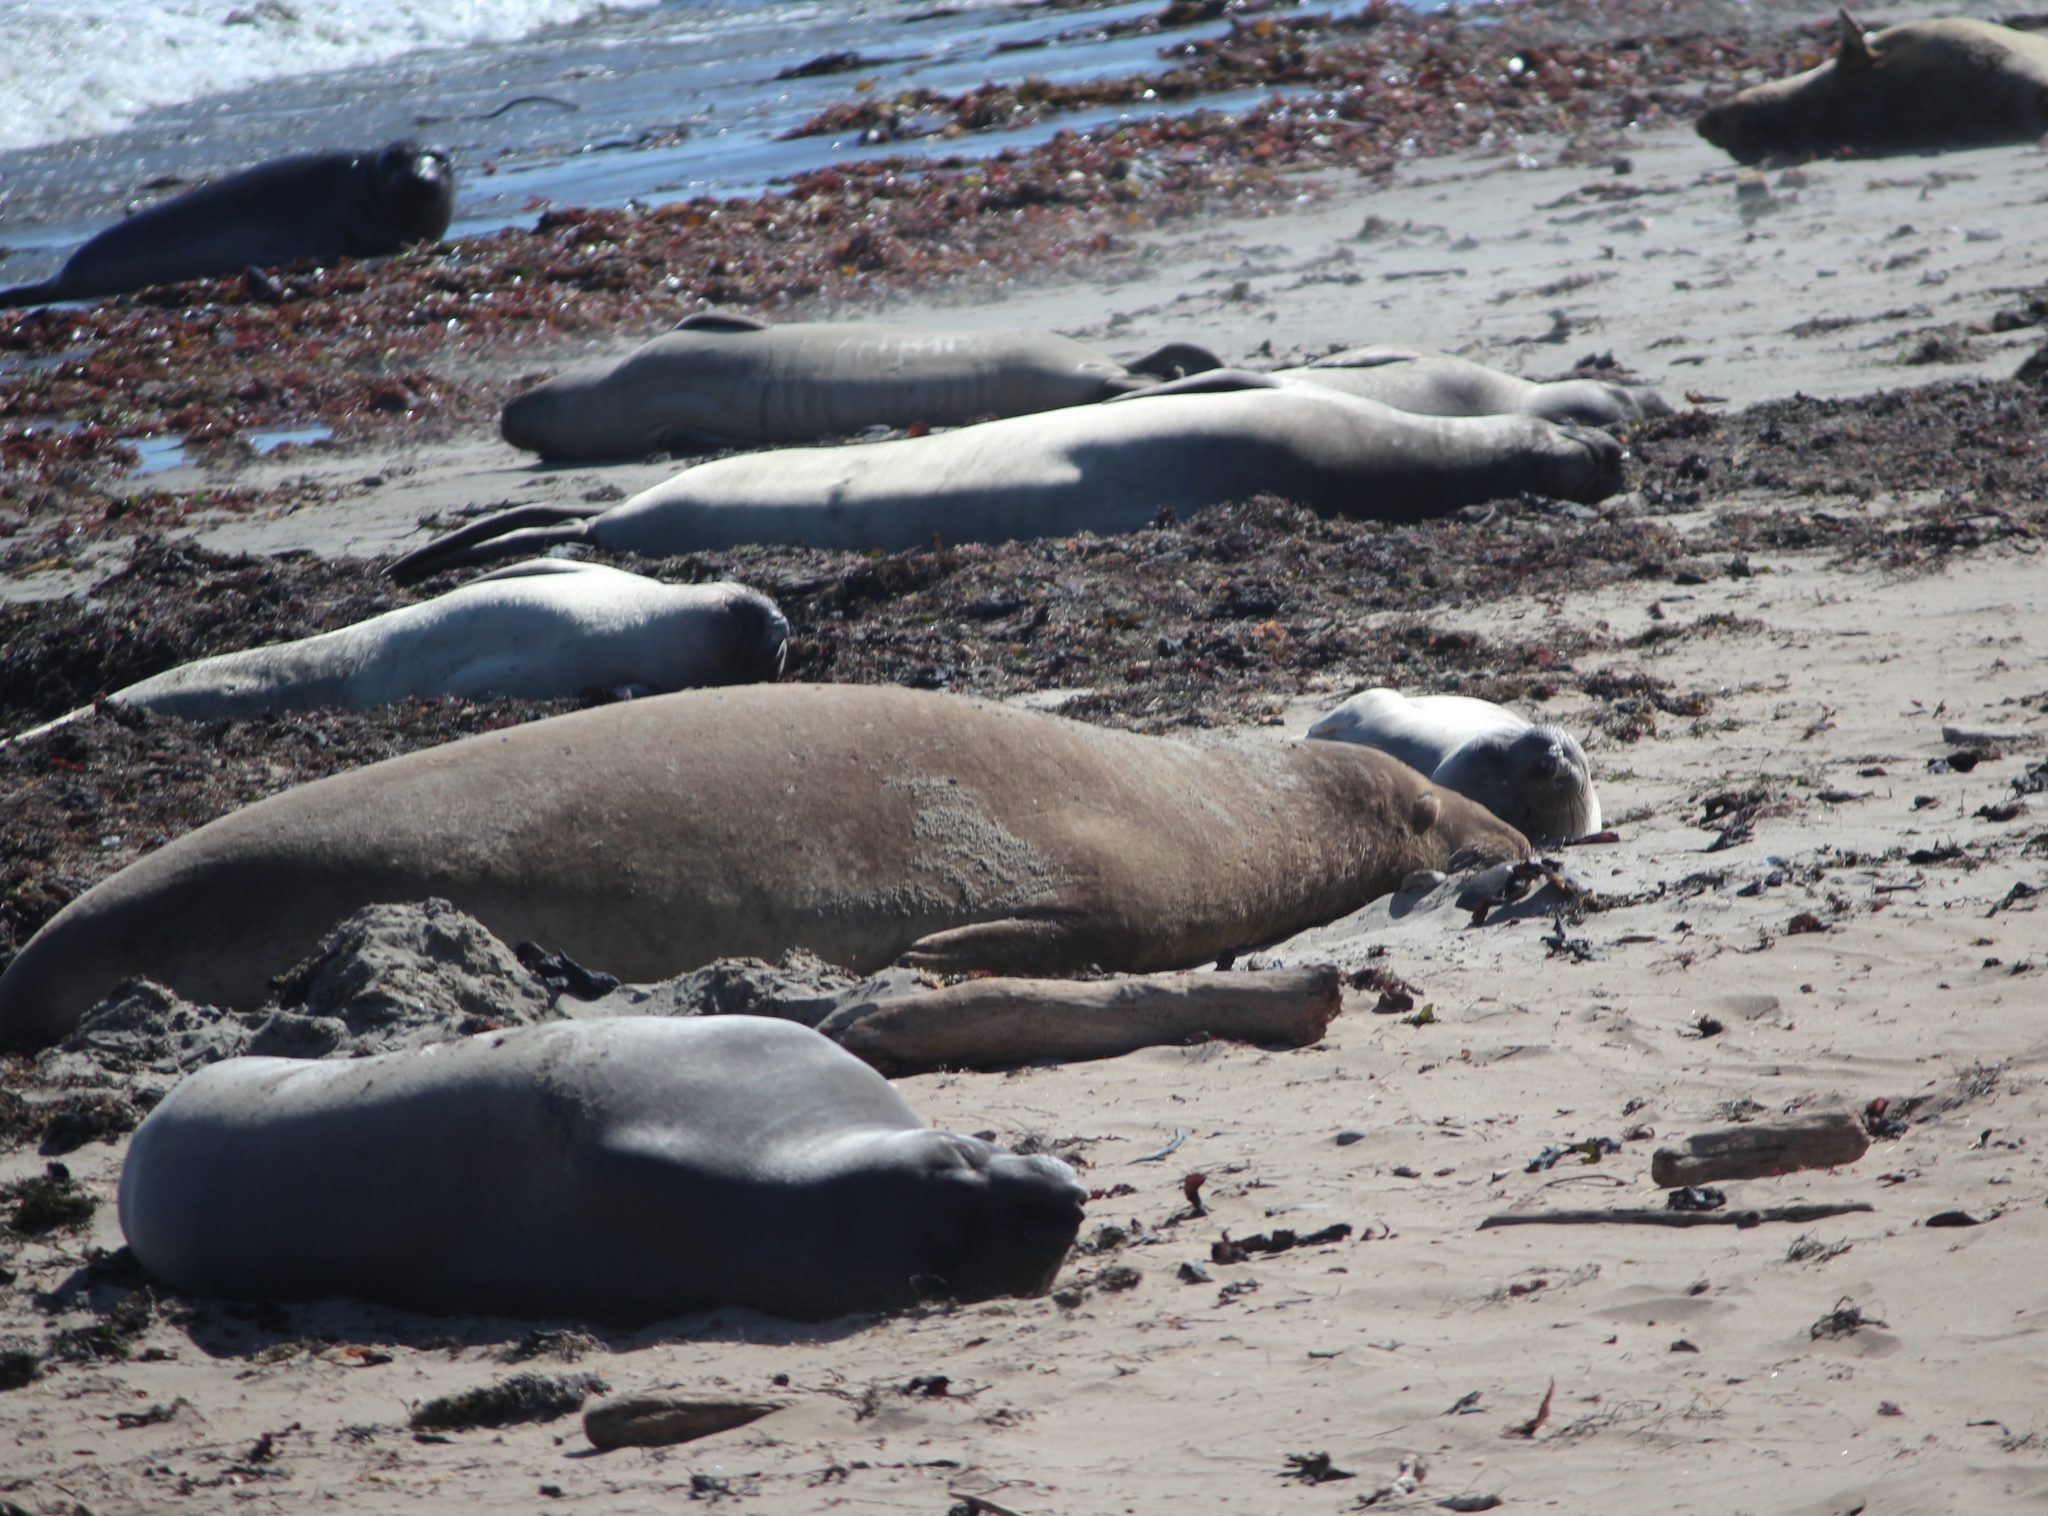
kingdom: Animalia
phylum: Chordata
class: Mammalia
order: Carnivora
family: Phocidae
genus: Mirounga
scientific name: Mirounga angustirostris
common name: Northern elephant seal
